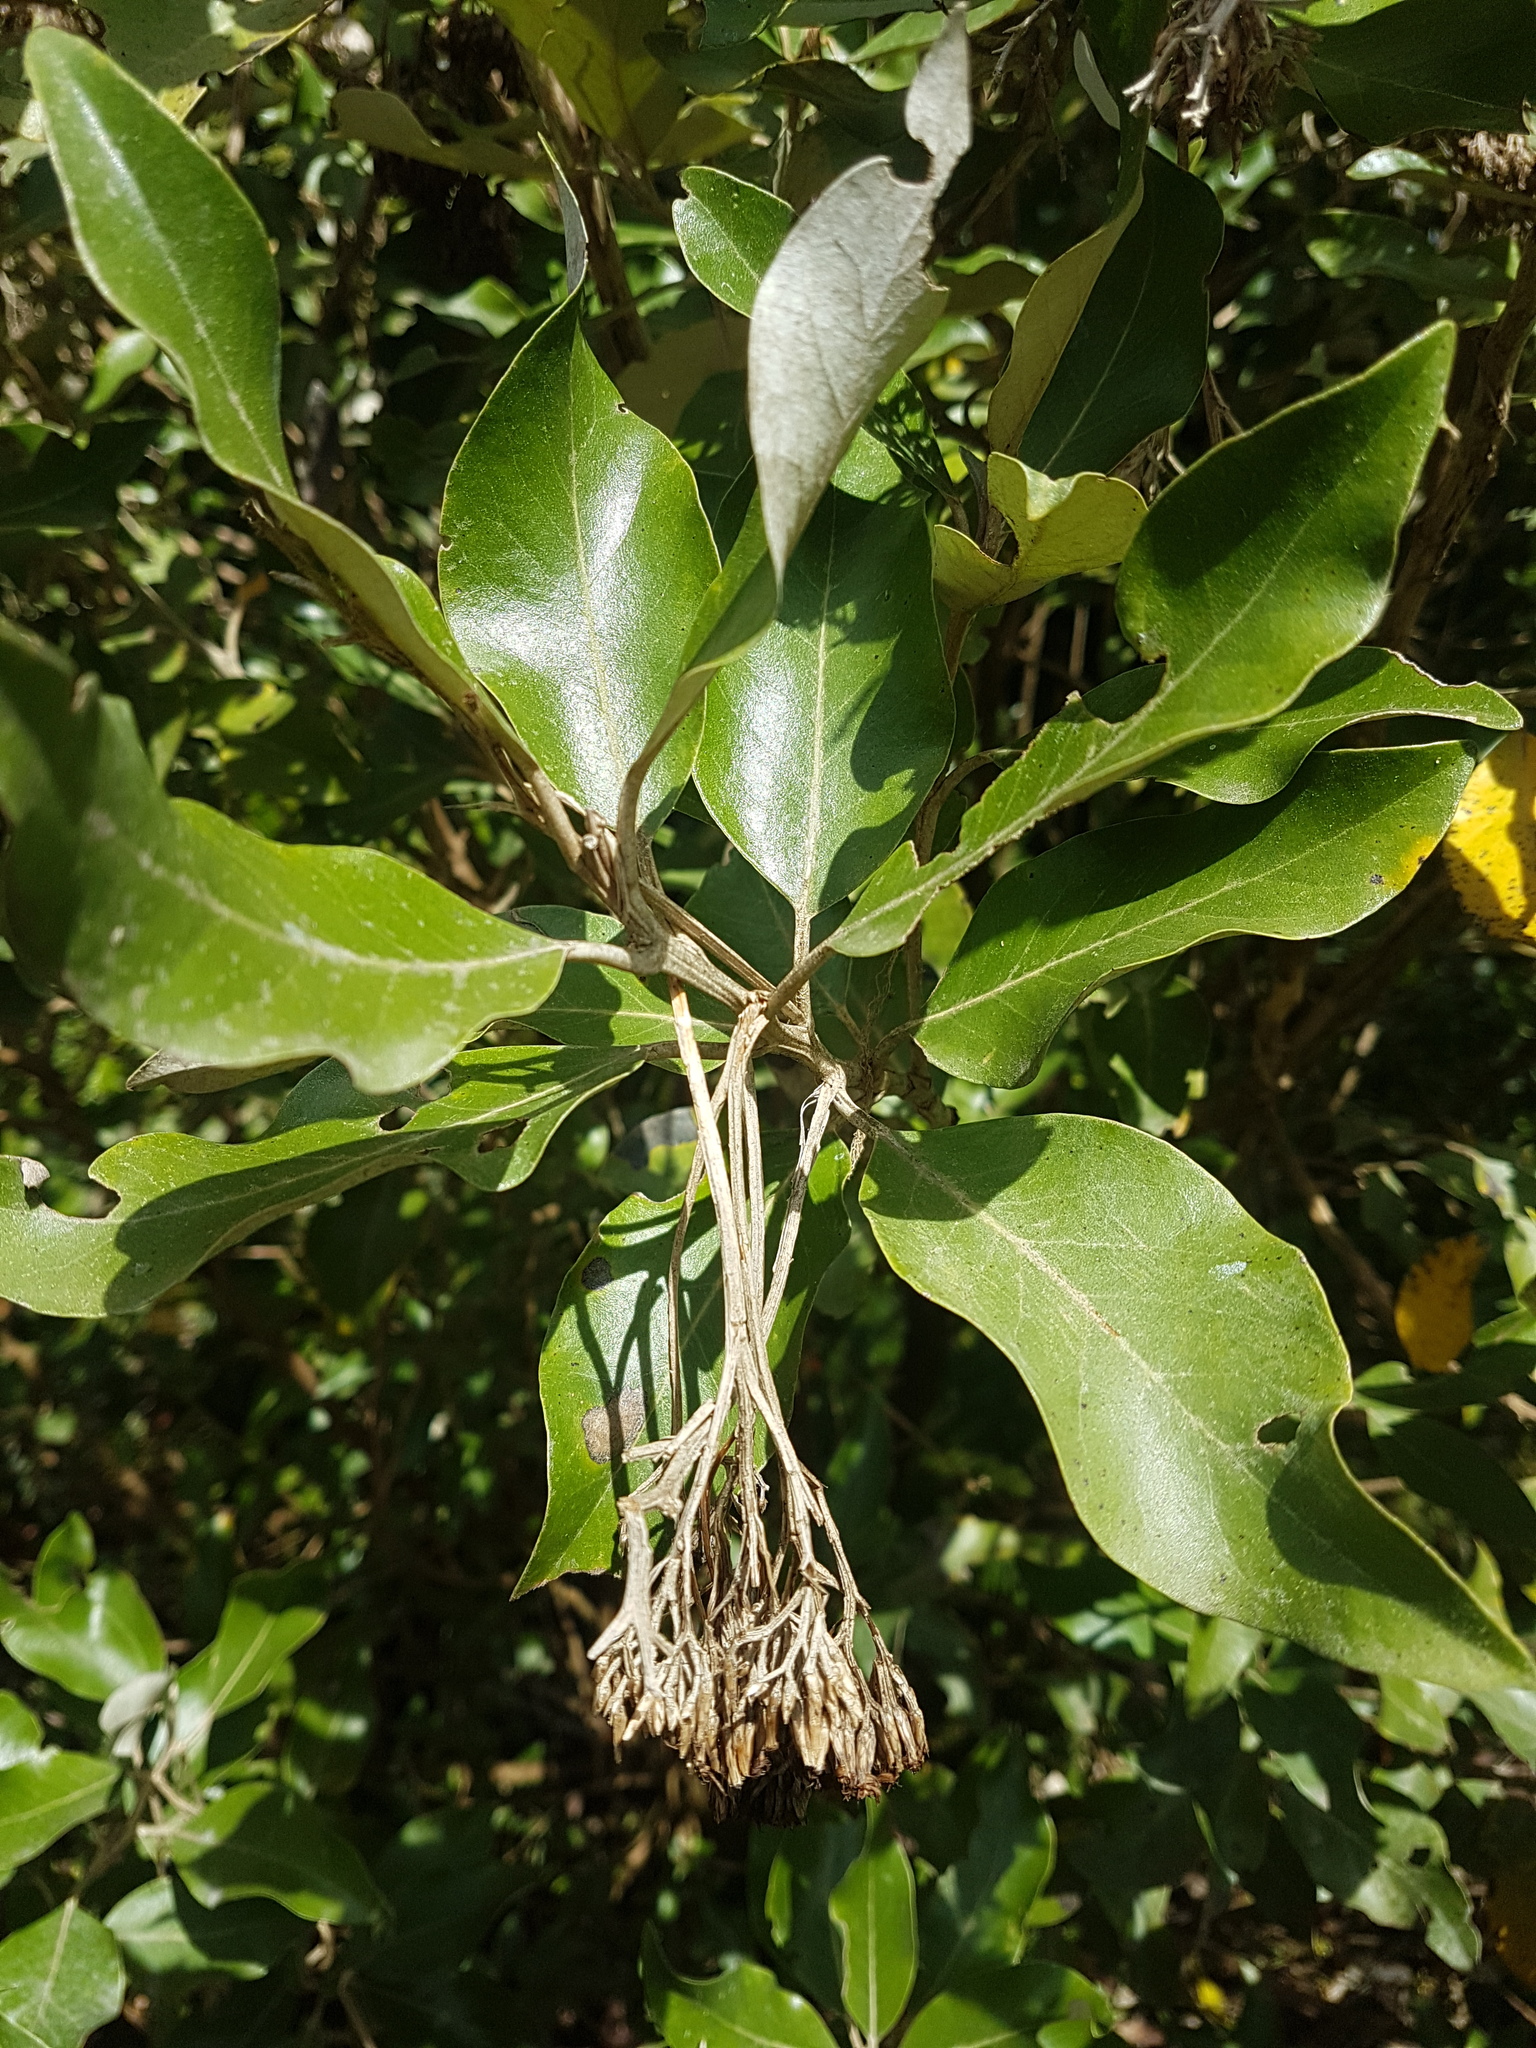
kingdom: Plantae
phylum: Tracheophyta
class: Magnoliopsida
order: Asterales
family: Asteraceae
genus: Olearia
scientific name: Olearia avicenniifolia
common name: Mangrove-leaf daisybush
